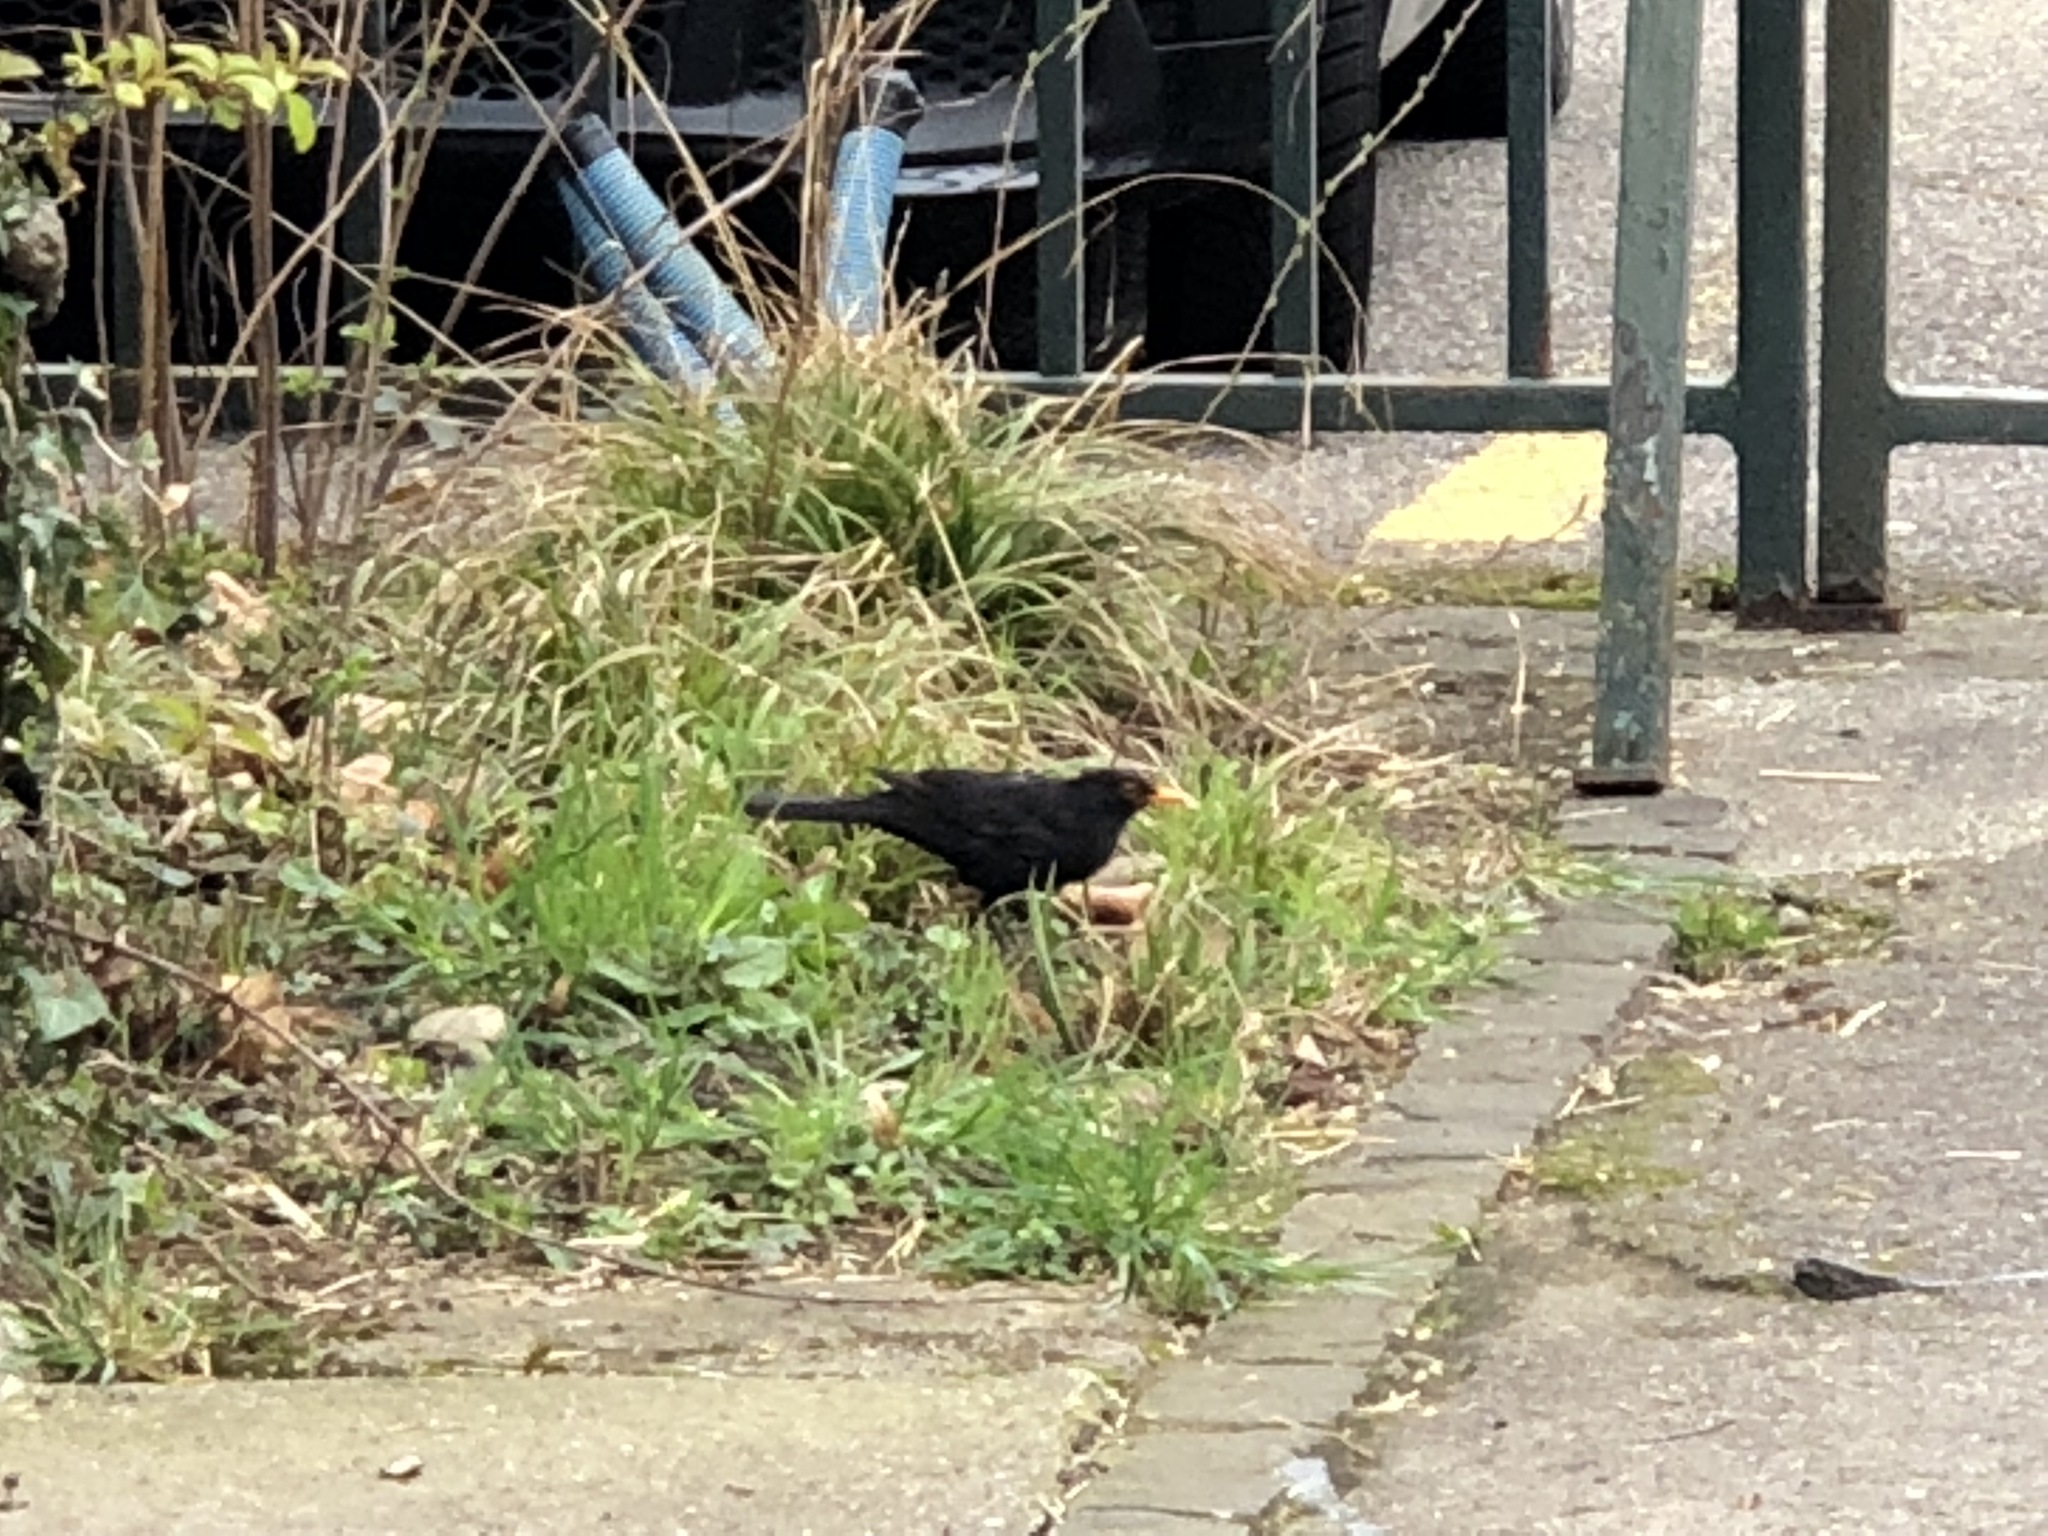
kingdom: Animalia
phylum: Chordata
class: Aves
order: Passeriformes
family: Turdidae
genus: Turdus
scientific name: Turdus merula
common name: Common blackbird
